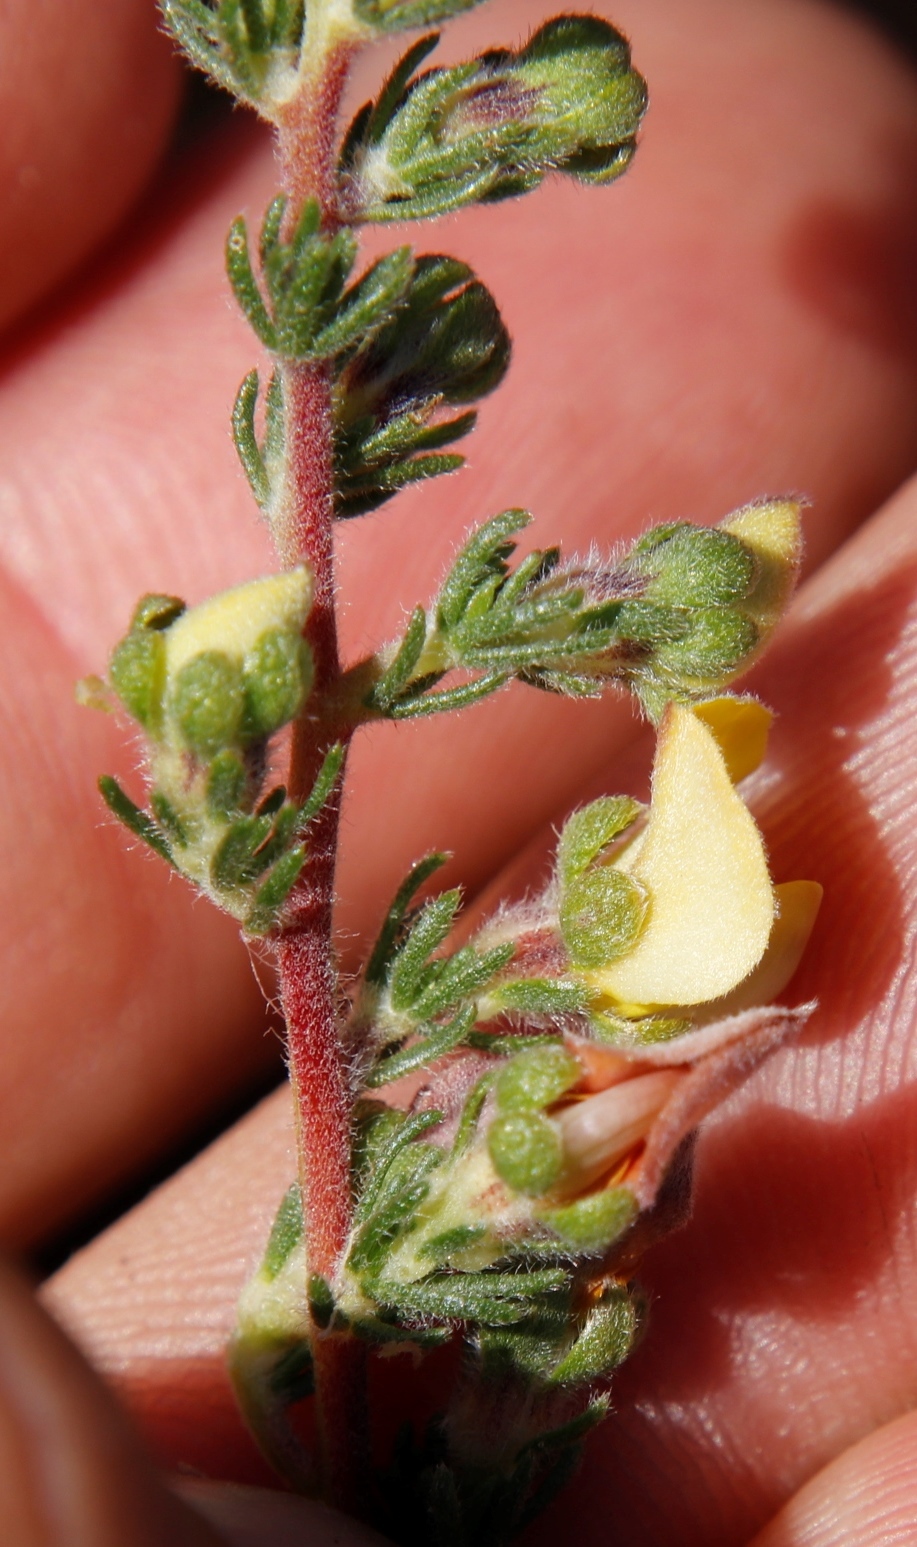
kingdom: Plantae
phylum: Tracheophyta
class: Magnoliopsida
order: Fabales
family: Fabaceae
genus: Aspalathus
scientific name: Aspalathus cymbiformis
